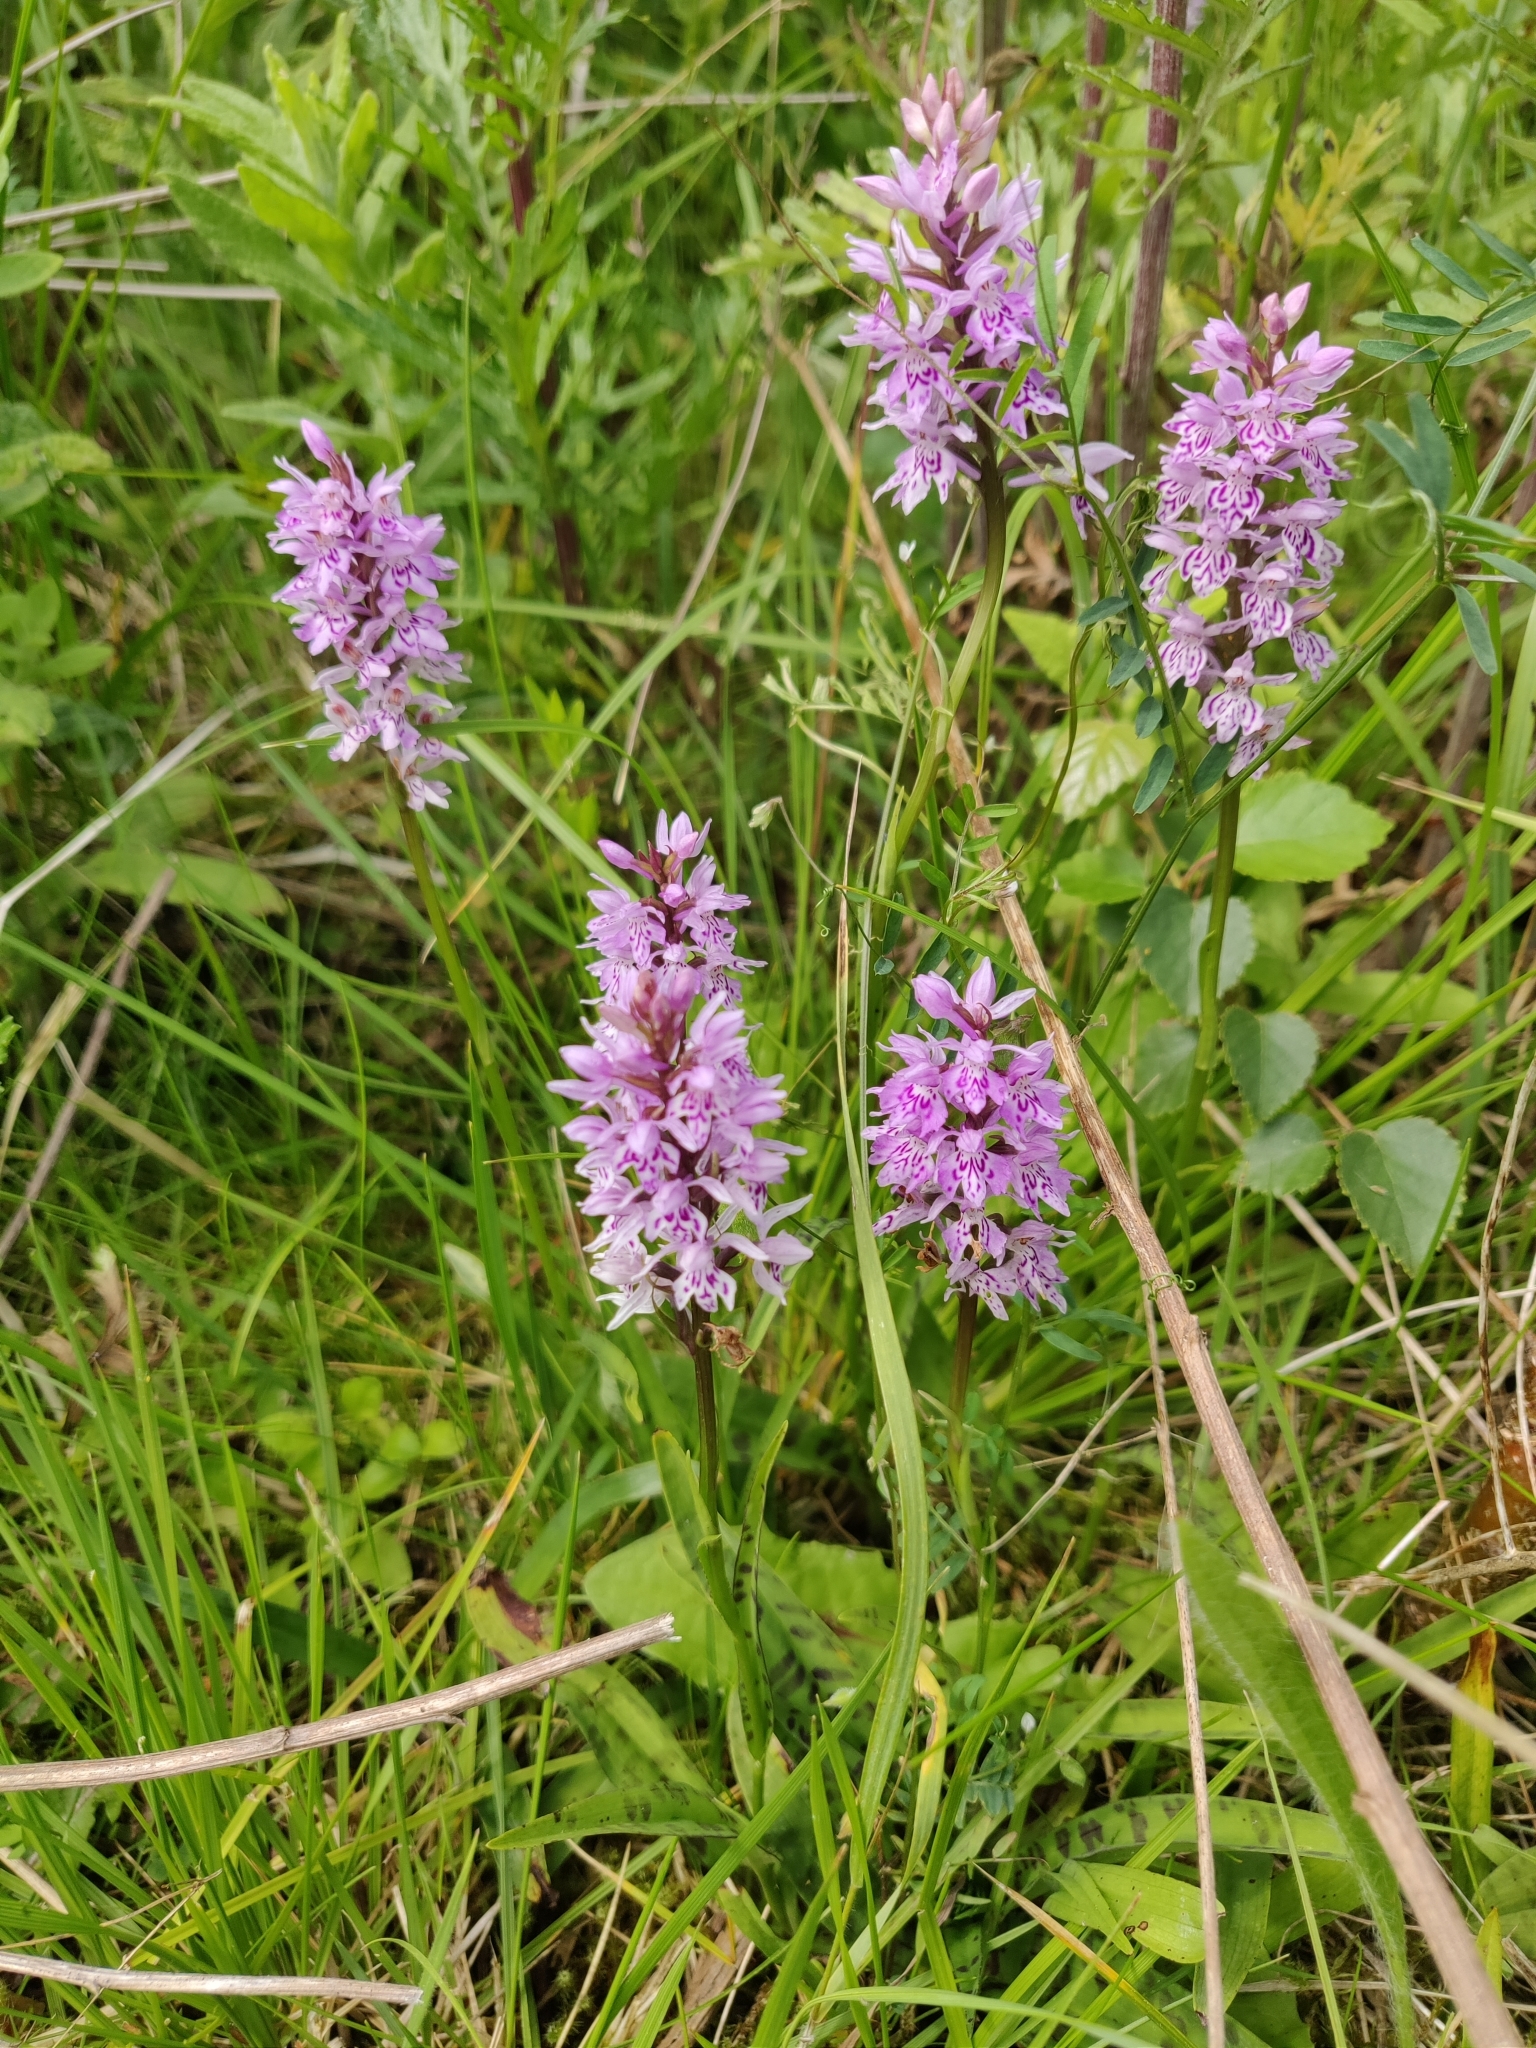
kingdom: Plantae
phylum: Tracheophyta
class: Liliopsida
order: Asparagales
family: Orchidaceae
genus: Dactylorhiza
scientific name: Dactylorhiza maculata
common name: Heath spotted-orchid
